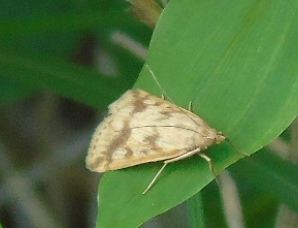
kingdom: Animalia
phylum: Arthropoda
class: Insecta
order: Lepidoptera
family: Crambidae
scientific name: Crambidae
